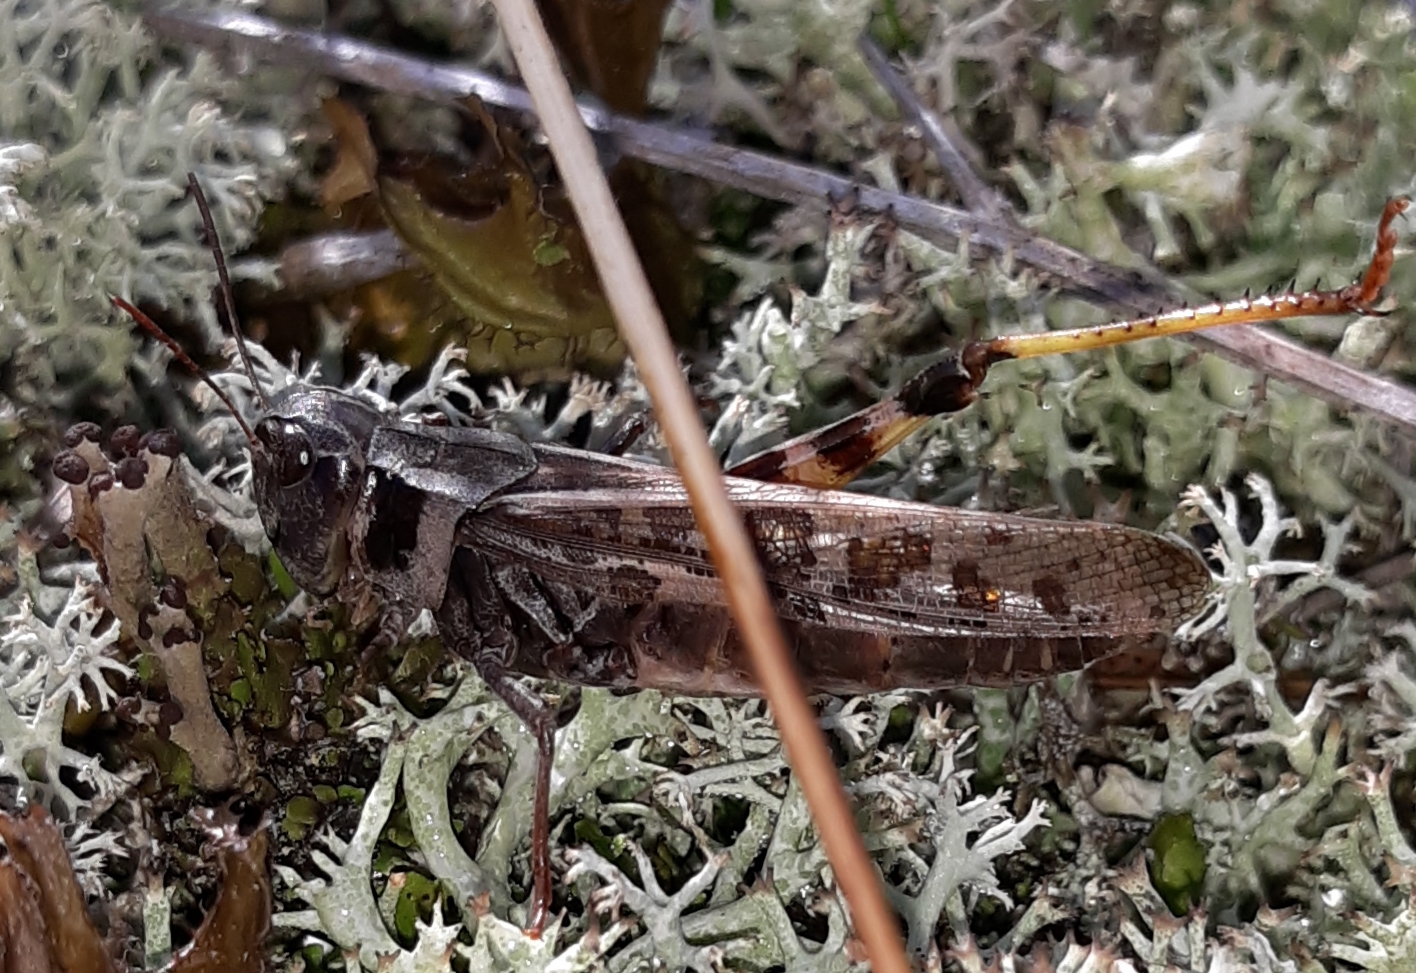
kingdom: Animalia
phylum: Arthropoda
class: Insecta
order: Orthoptera
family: Acrididae
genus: Camnula
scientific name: Camnula pellucida
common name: Clear-winged grasshopper
